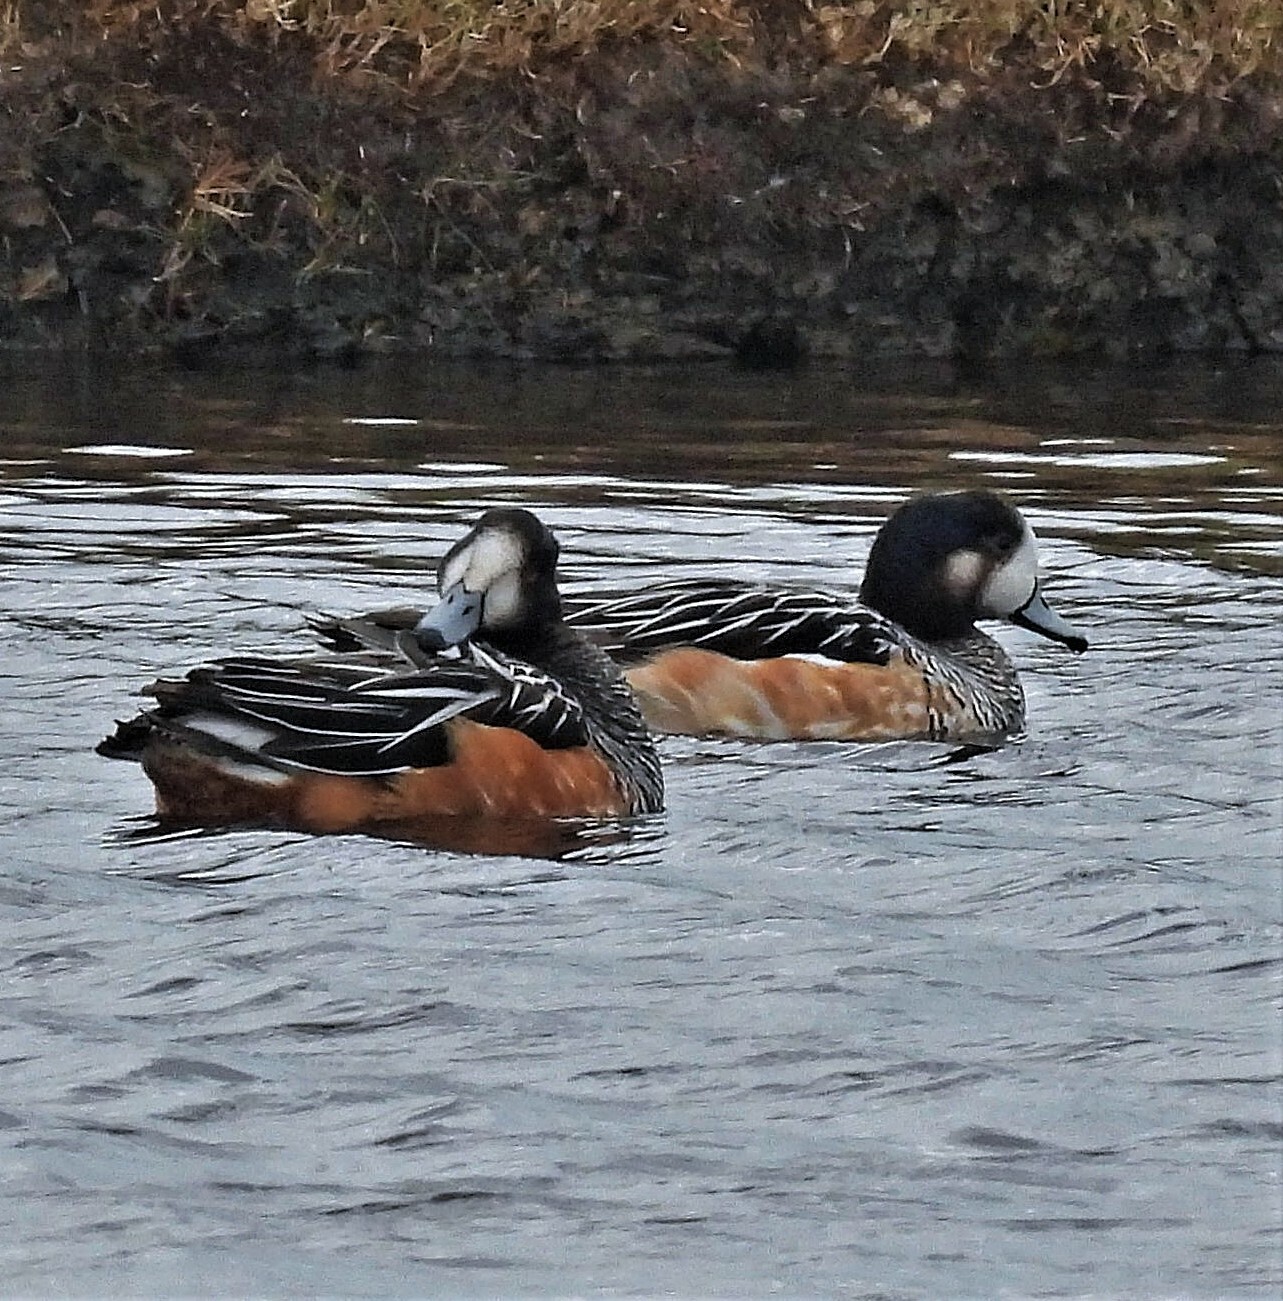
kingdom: Animalia
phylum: Chordata
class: Aves
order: Anseriformes
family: Anatidae
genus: Mareca
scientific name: Mareca sibilatrix
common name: Chiloe wigeon
